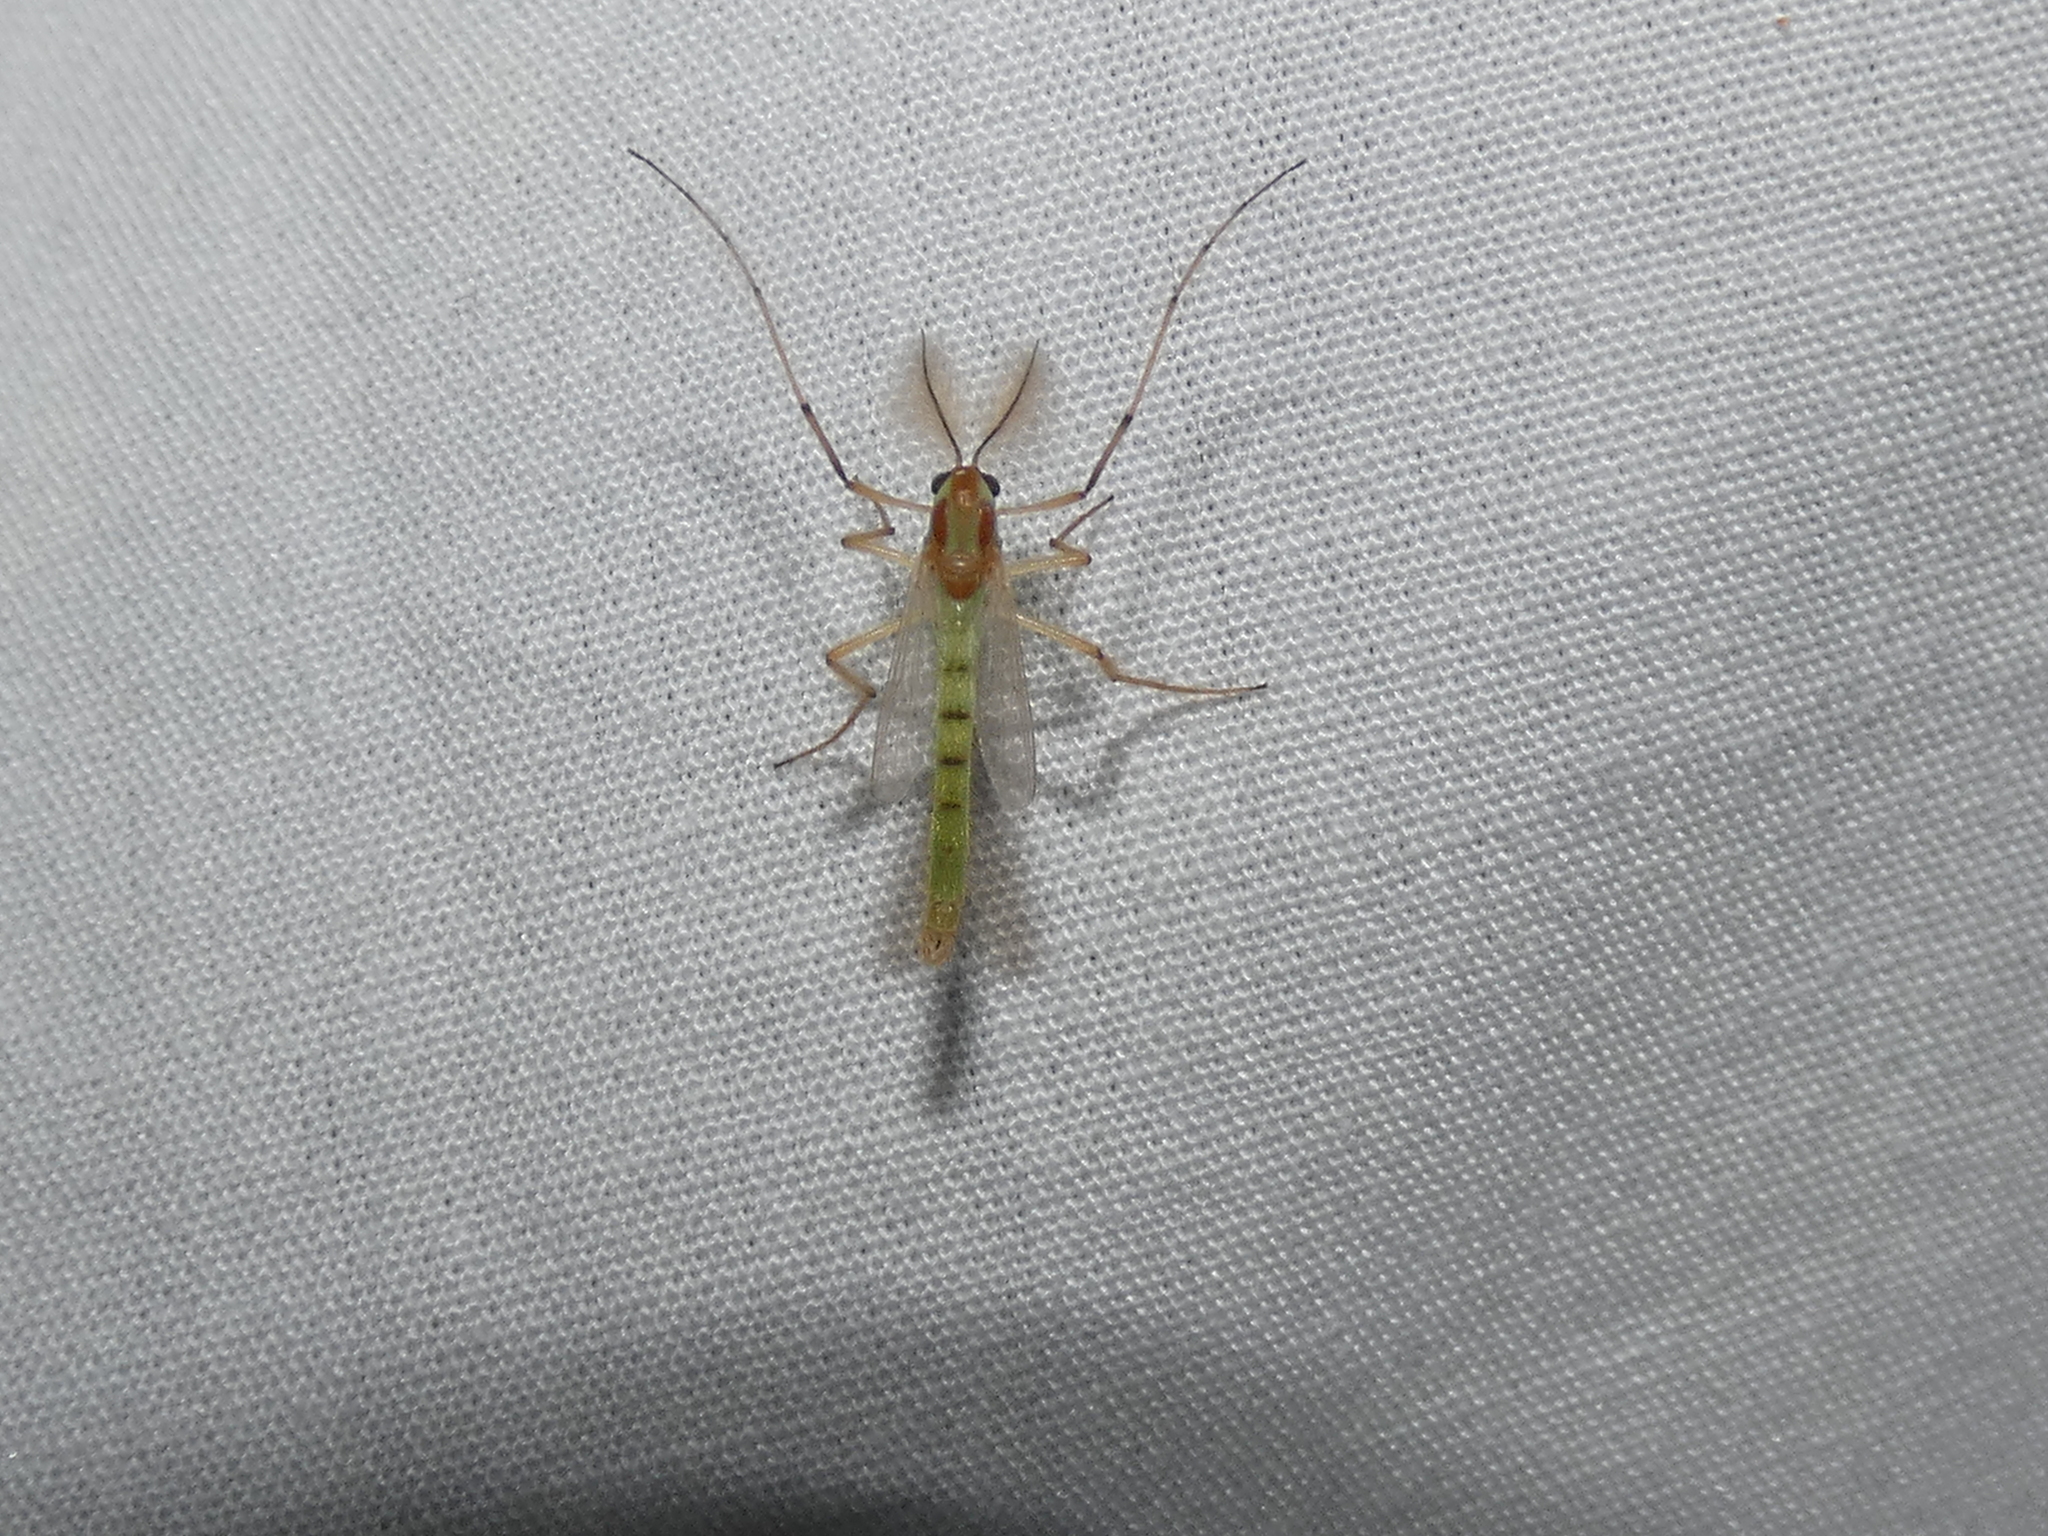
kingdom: Animalia
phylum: Arthropoda
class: Insecta
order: Diptera
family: Chironomidae
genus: Axarus
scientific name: Axarus
